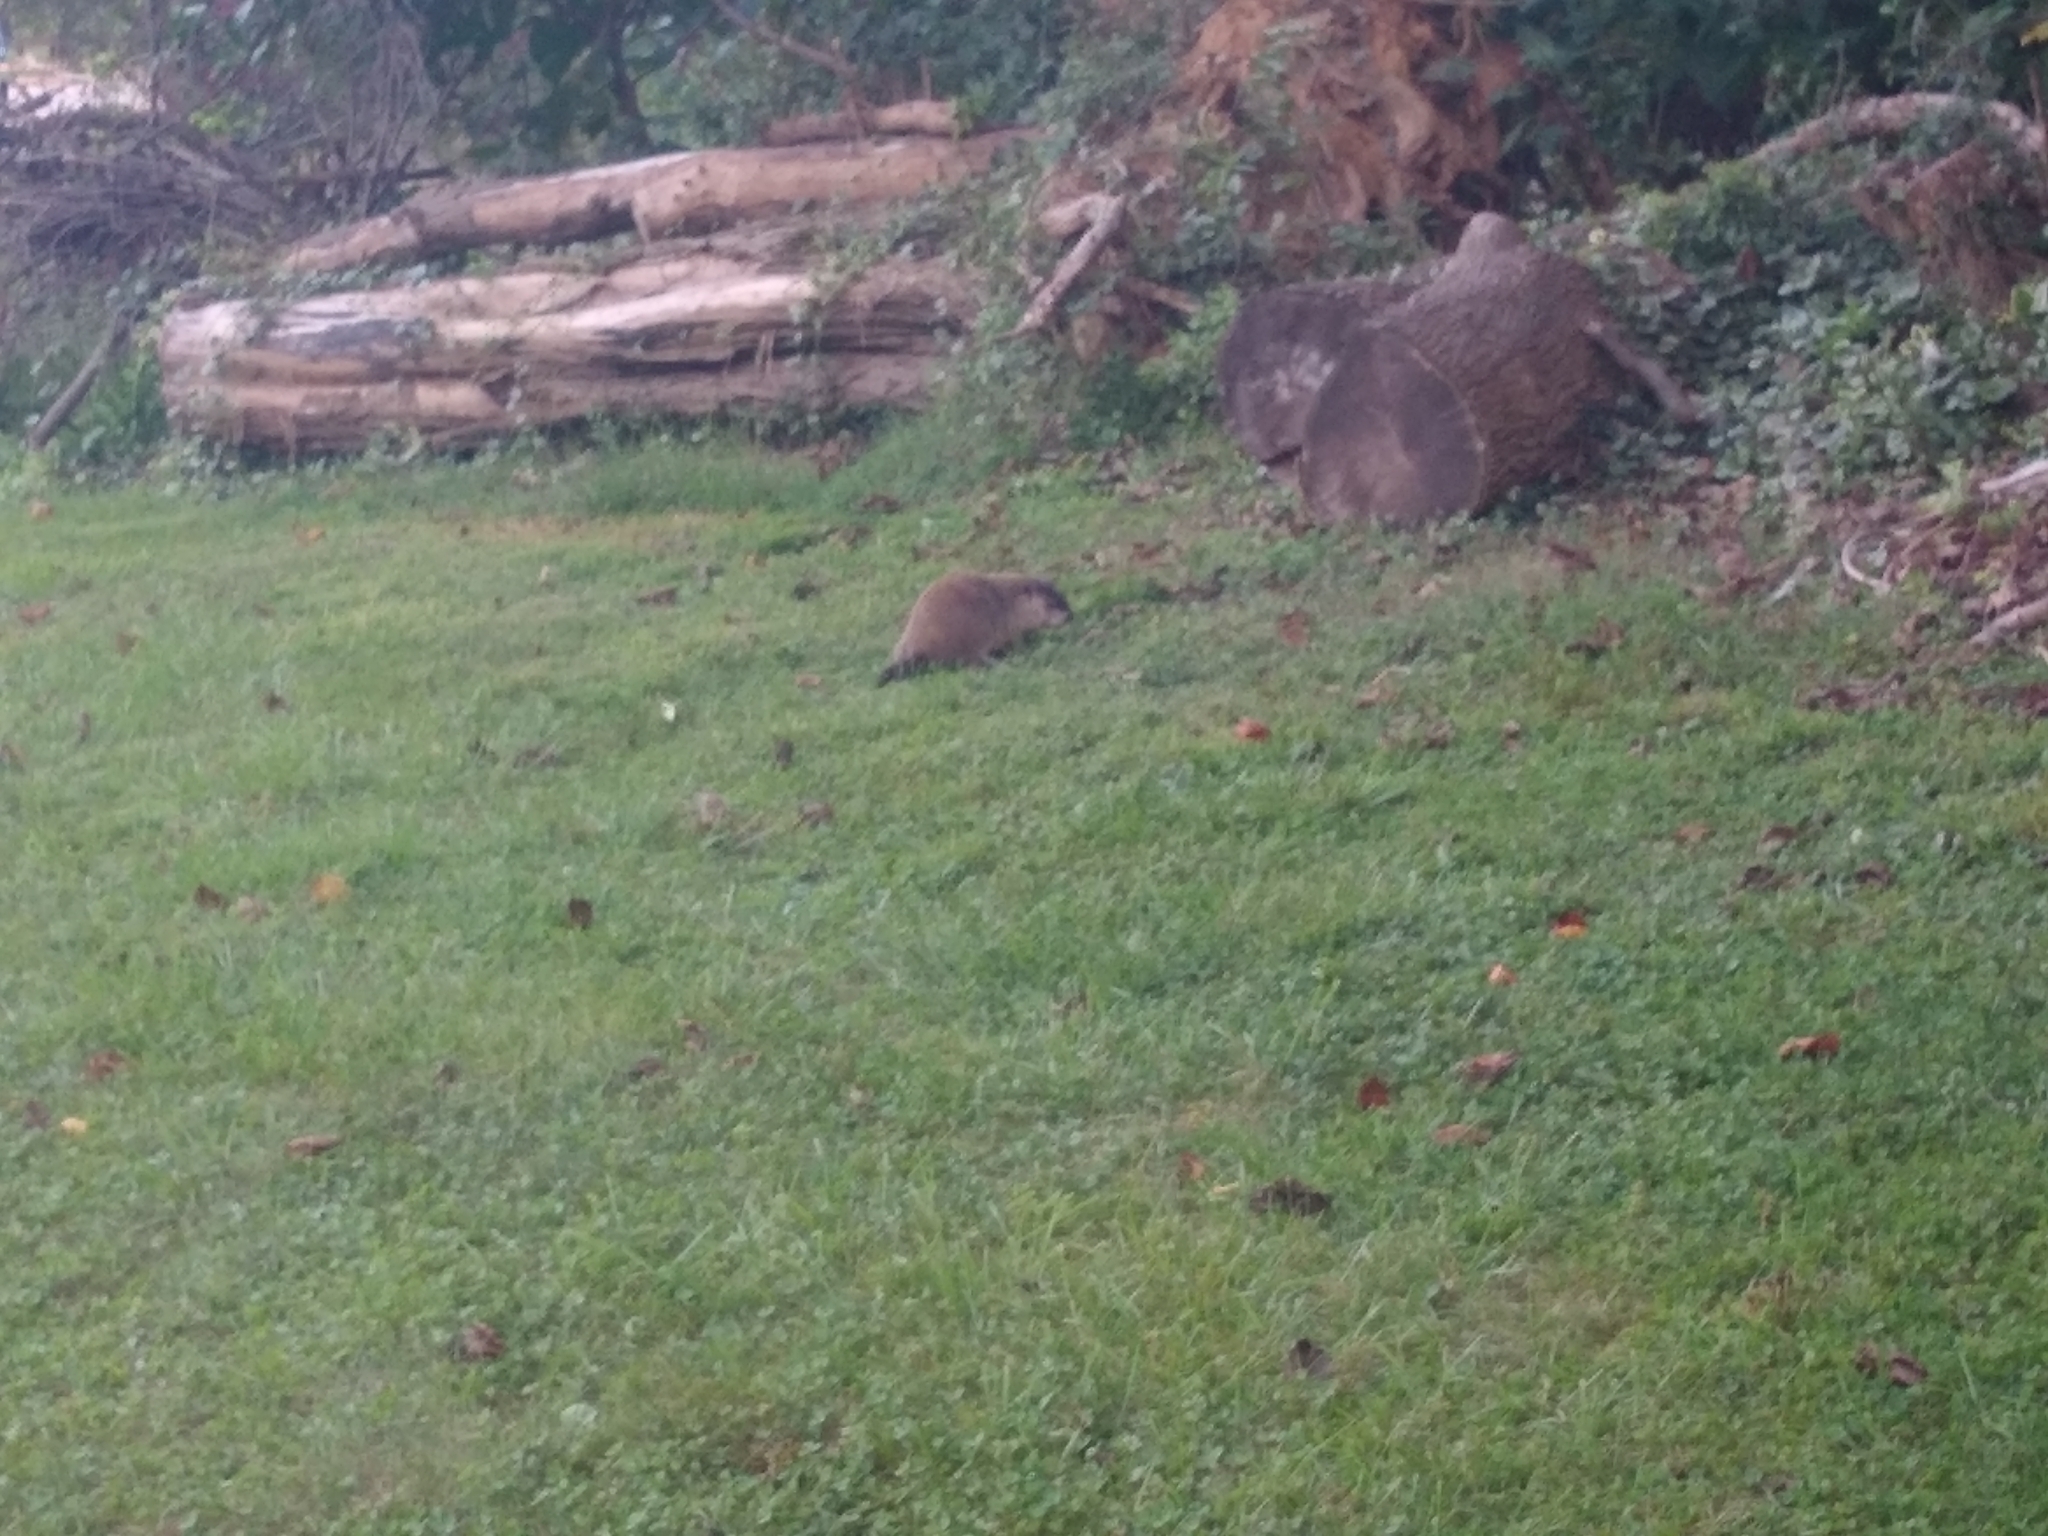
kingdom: Animalia
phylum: Chordata
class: Mammalia
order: Rodentia
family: Sciuridae
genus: Marmota
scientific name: Marmota monax
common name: Groundhog
